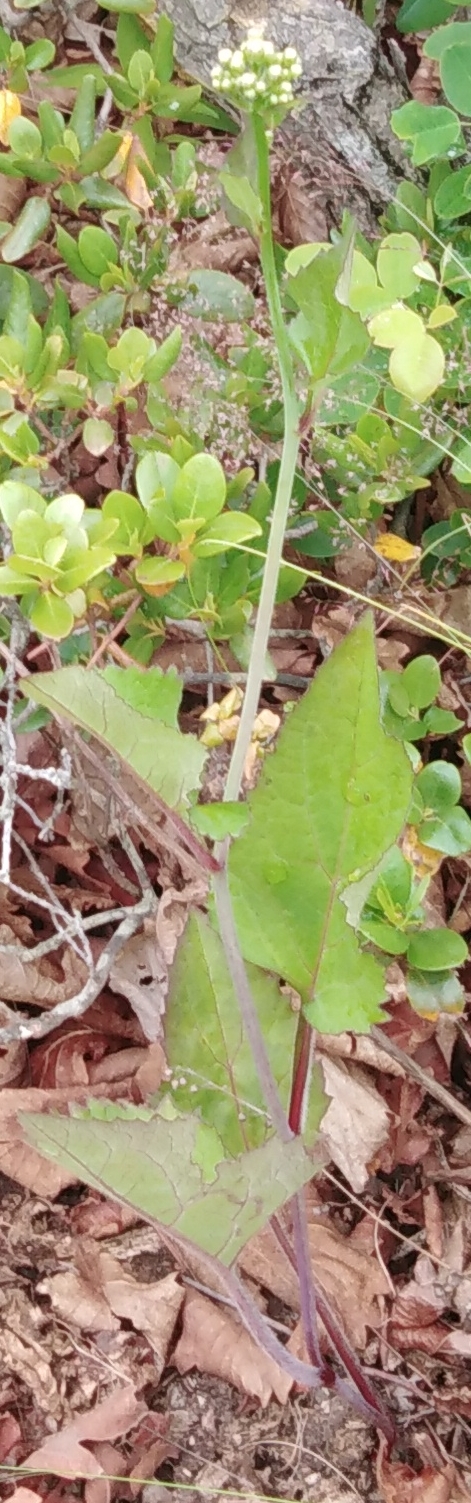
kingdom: Plantae
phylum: Tracheophyta
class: Magnoliopsida
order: Asterales
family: Asteraceae
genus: Aster
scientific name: Aster scaber
